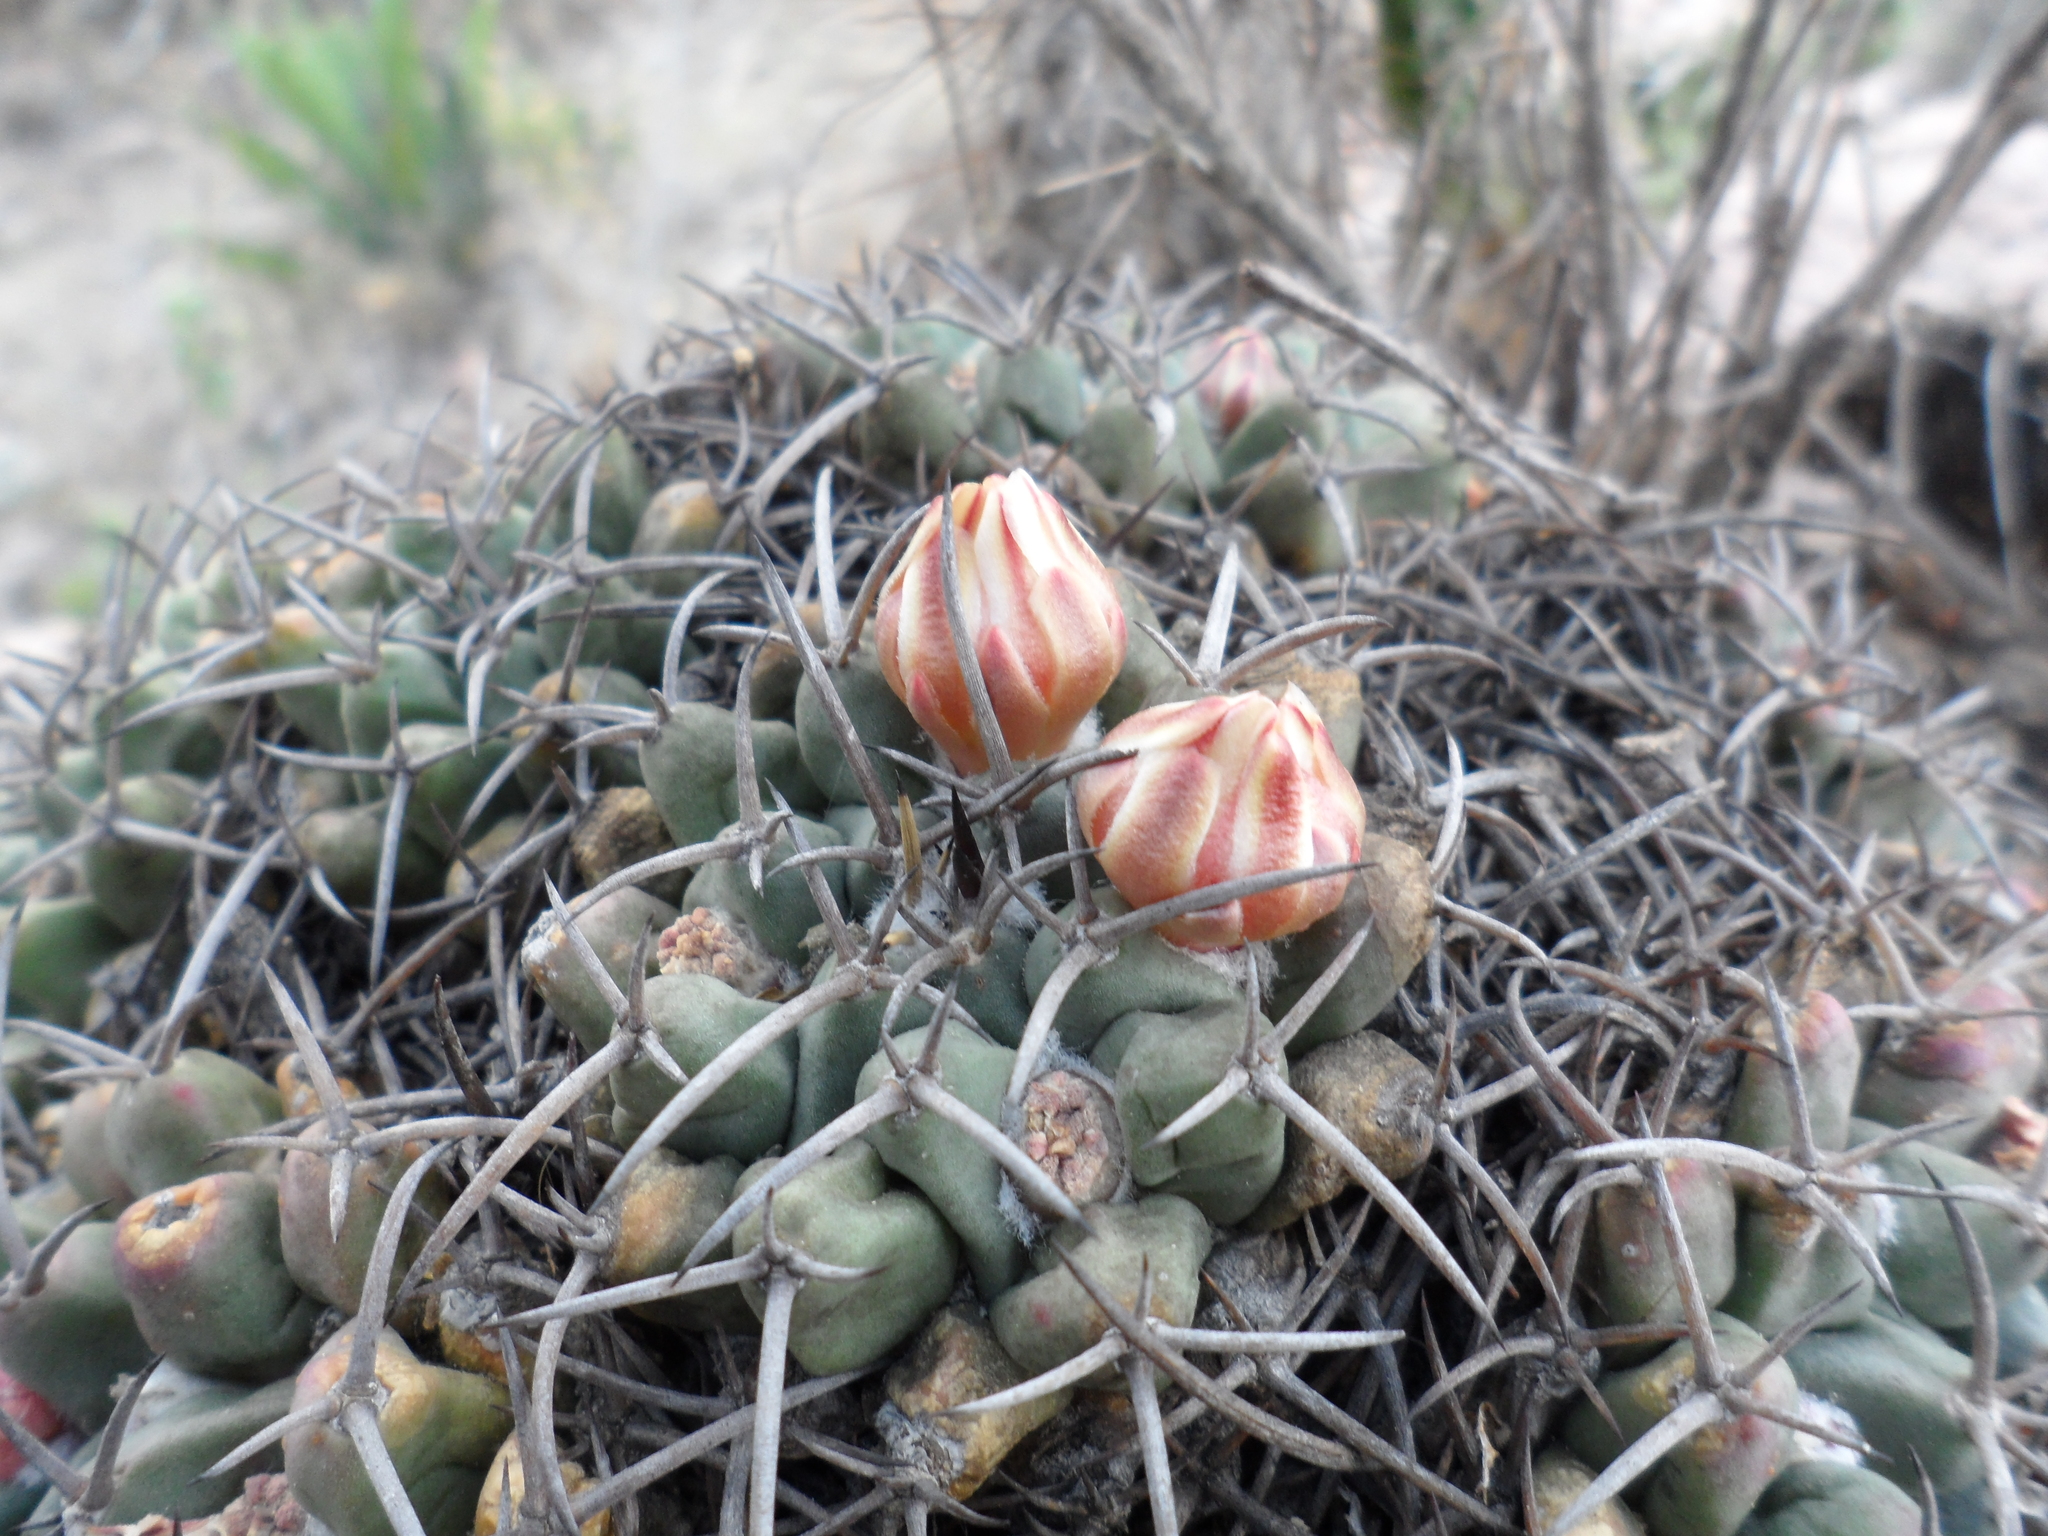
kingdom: Plantae
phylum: Tracheophyta
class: Magnoliopsida
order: Caryophyllales
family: Cactaceae
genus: Mammillaria
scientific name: Mammillaria magnimamma
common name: Mexican pincushion
